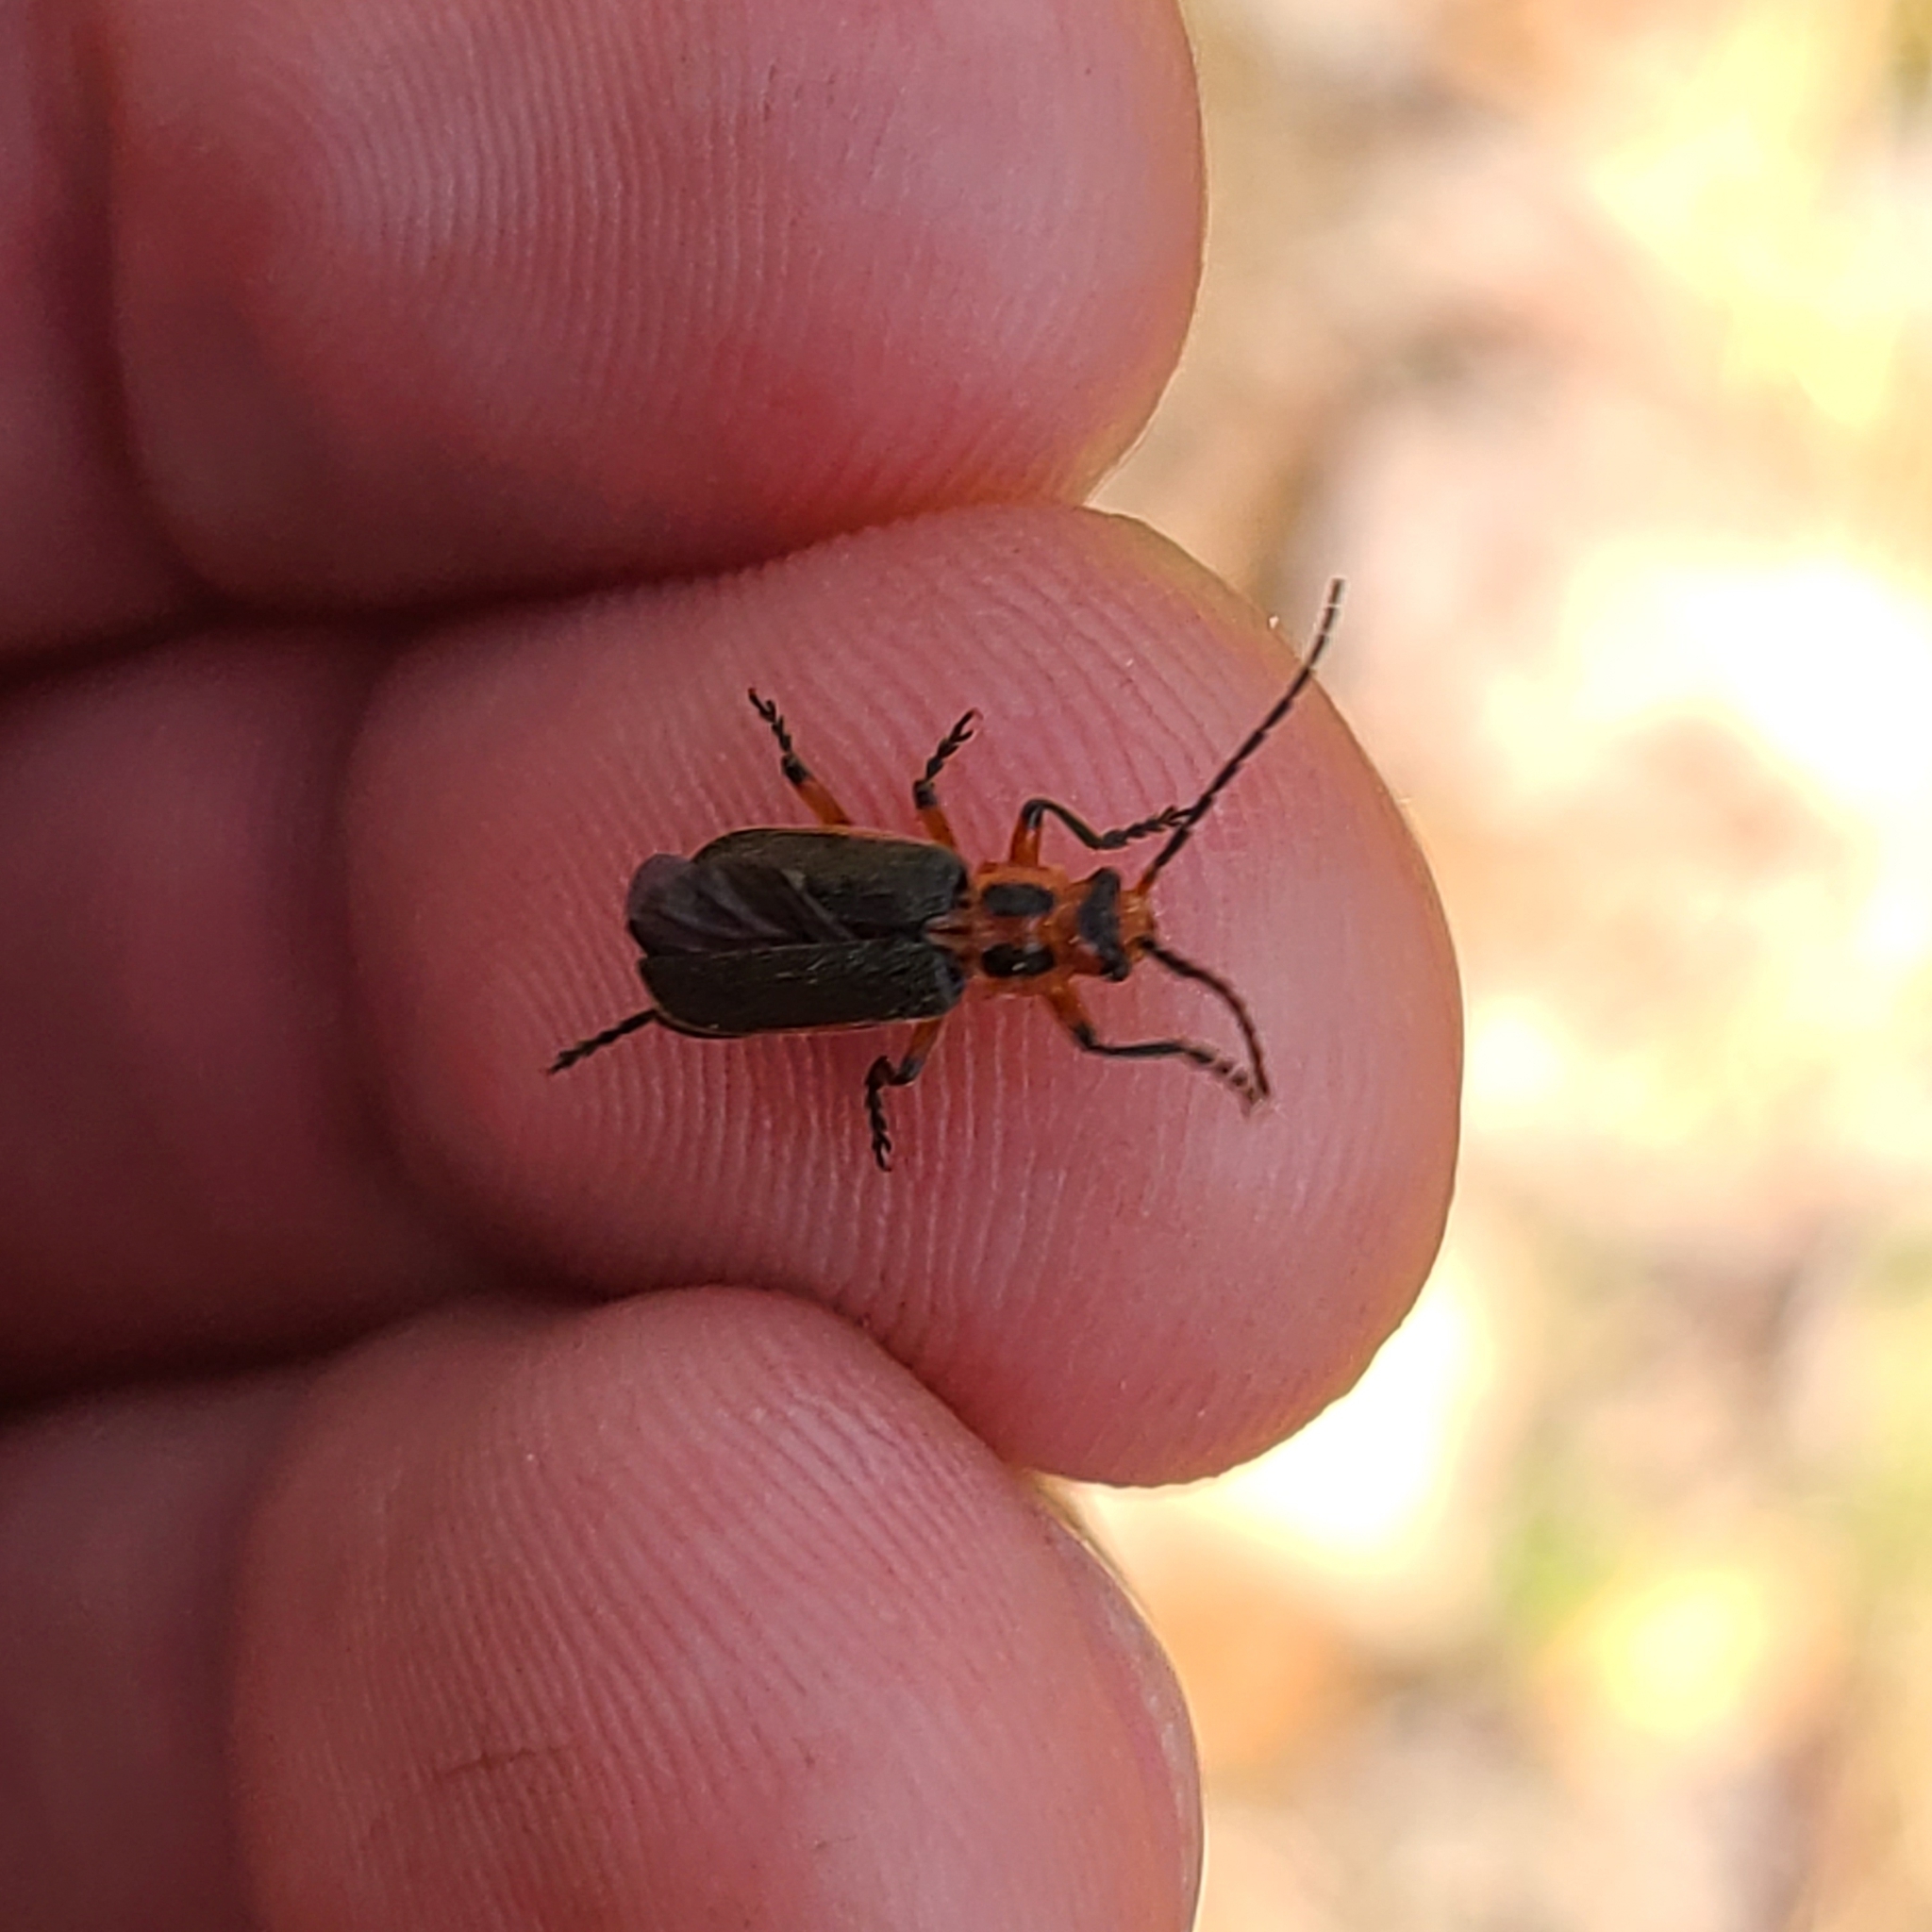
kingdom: Animalia
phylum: Arthropoda
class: Insecta
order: Coleoptera
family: Cantharidae
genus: Atalantycha
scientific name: Atalantycha bilineata
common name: Two-lined leatherwing
